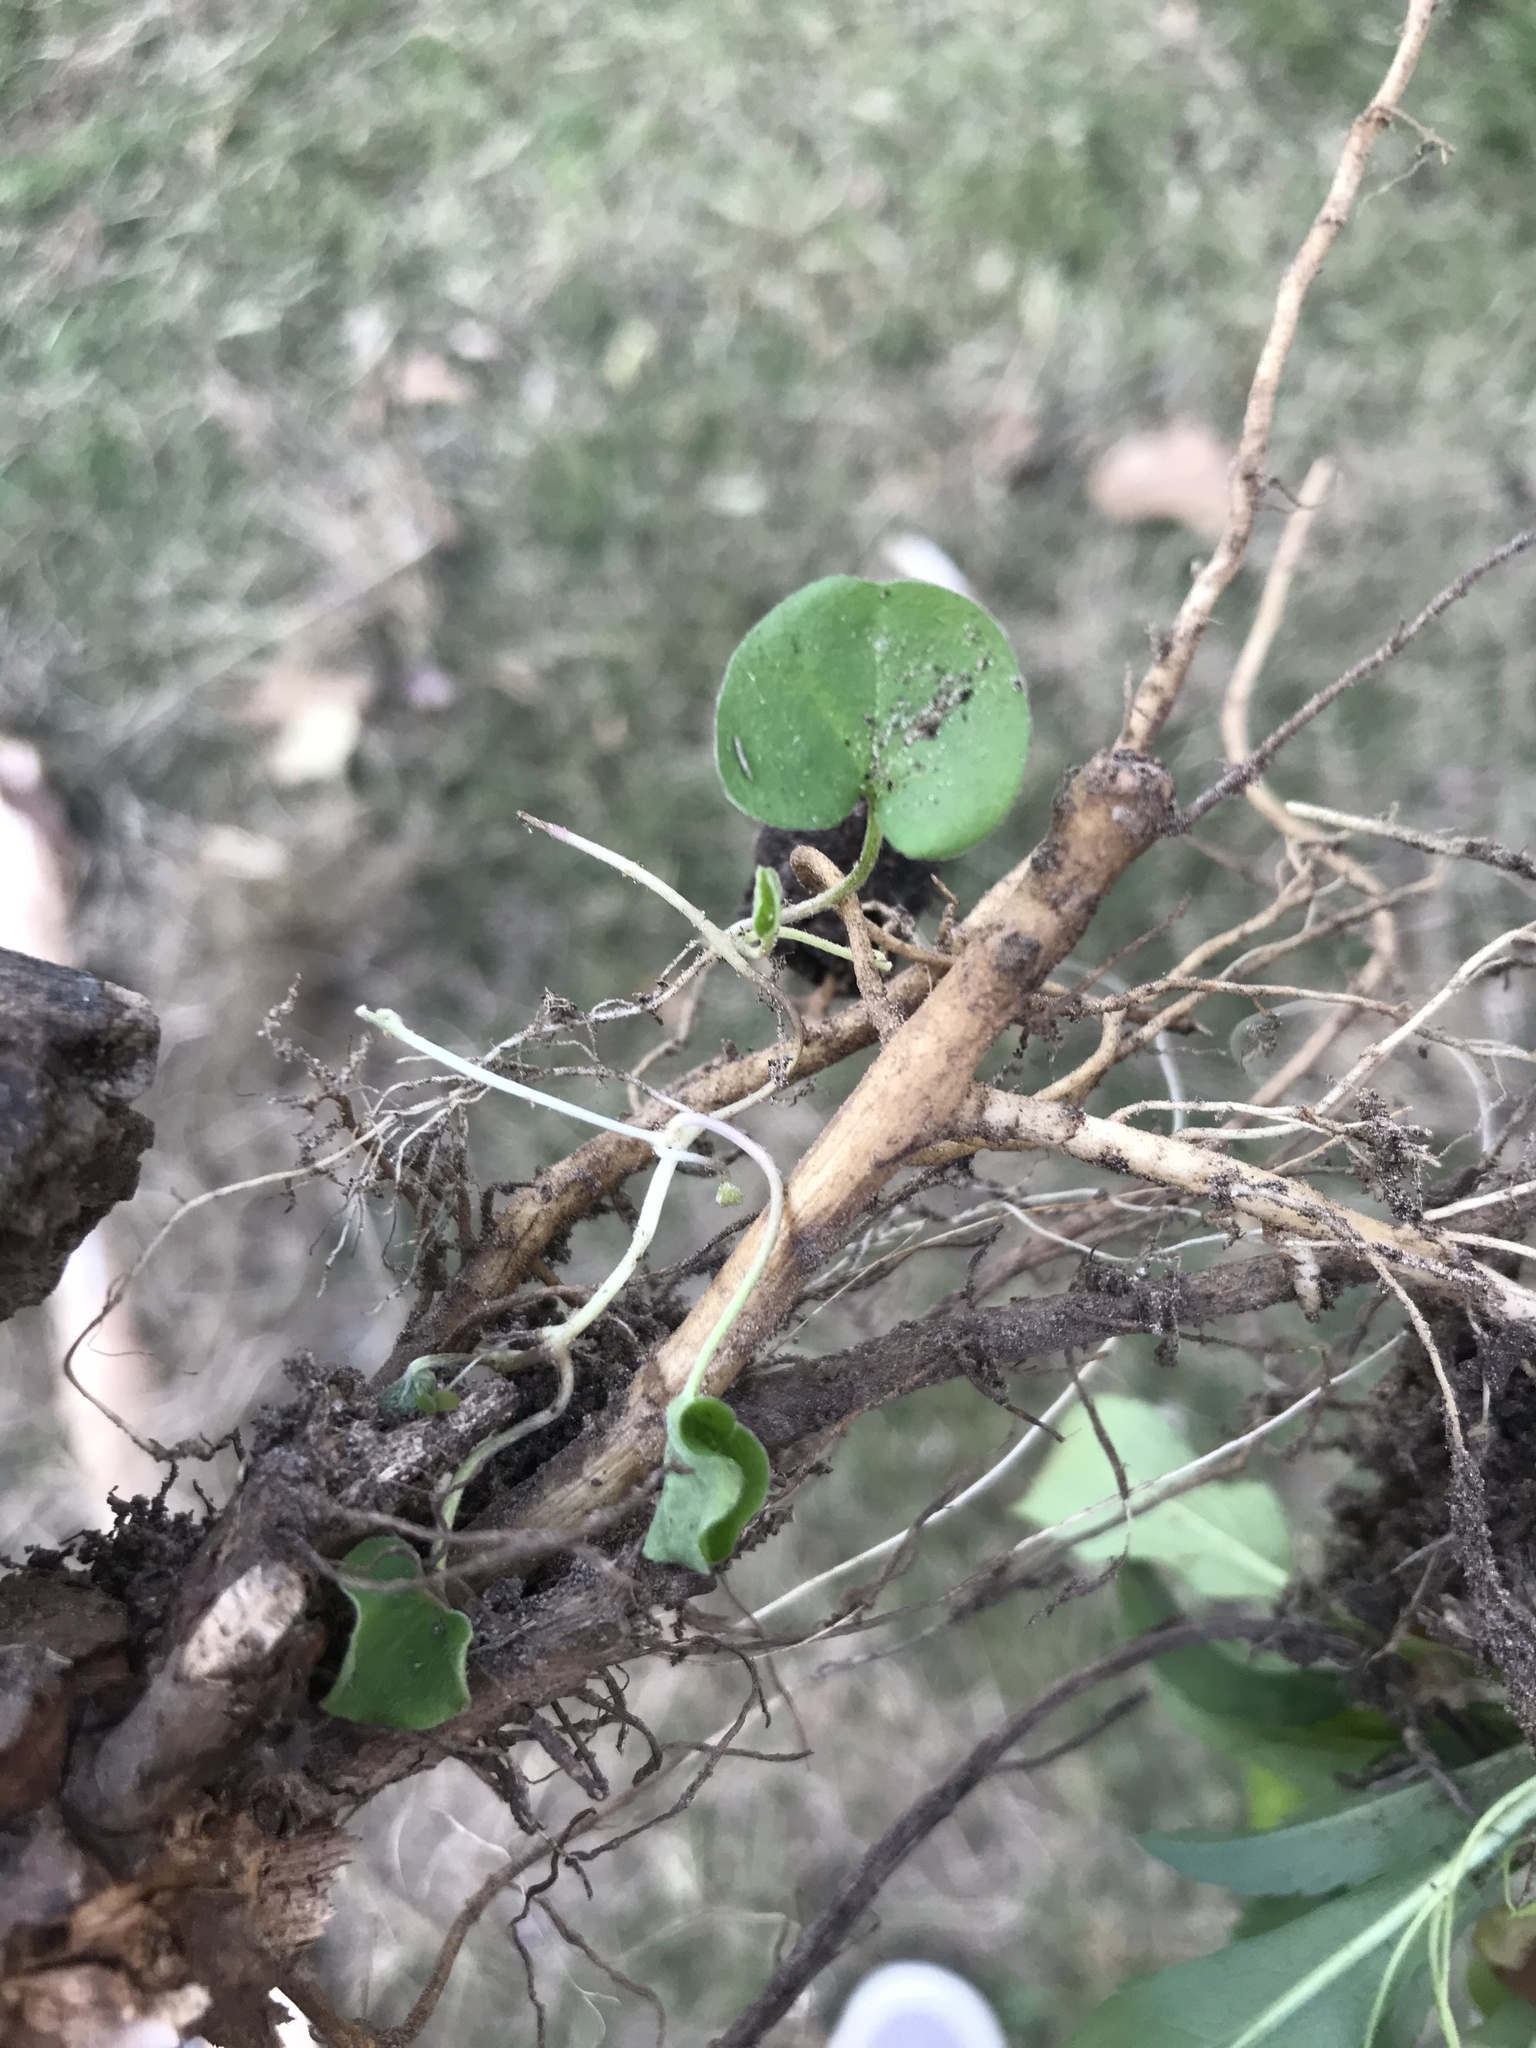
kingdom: Plantae
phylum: Tracheophyta
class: Magnoliopsida
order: Solanales
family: Convolvulaceae
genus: Dichondra
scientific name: Dichondra carolinensis
